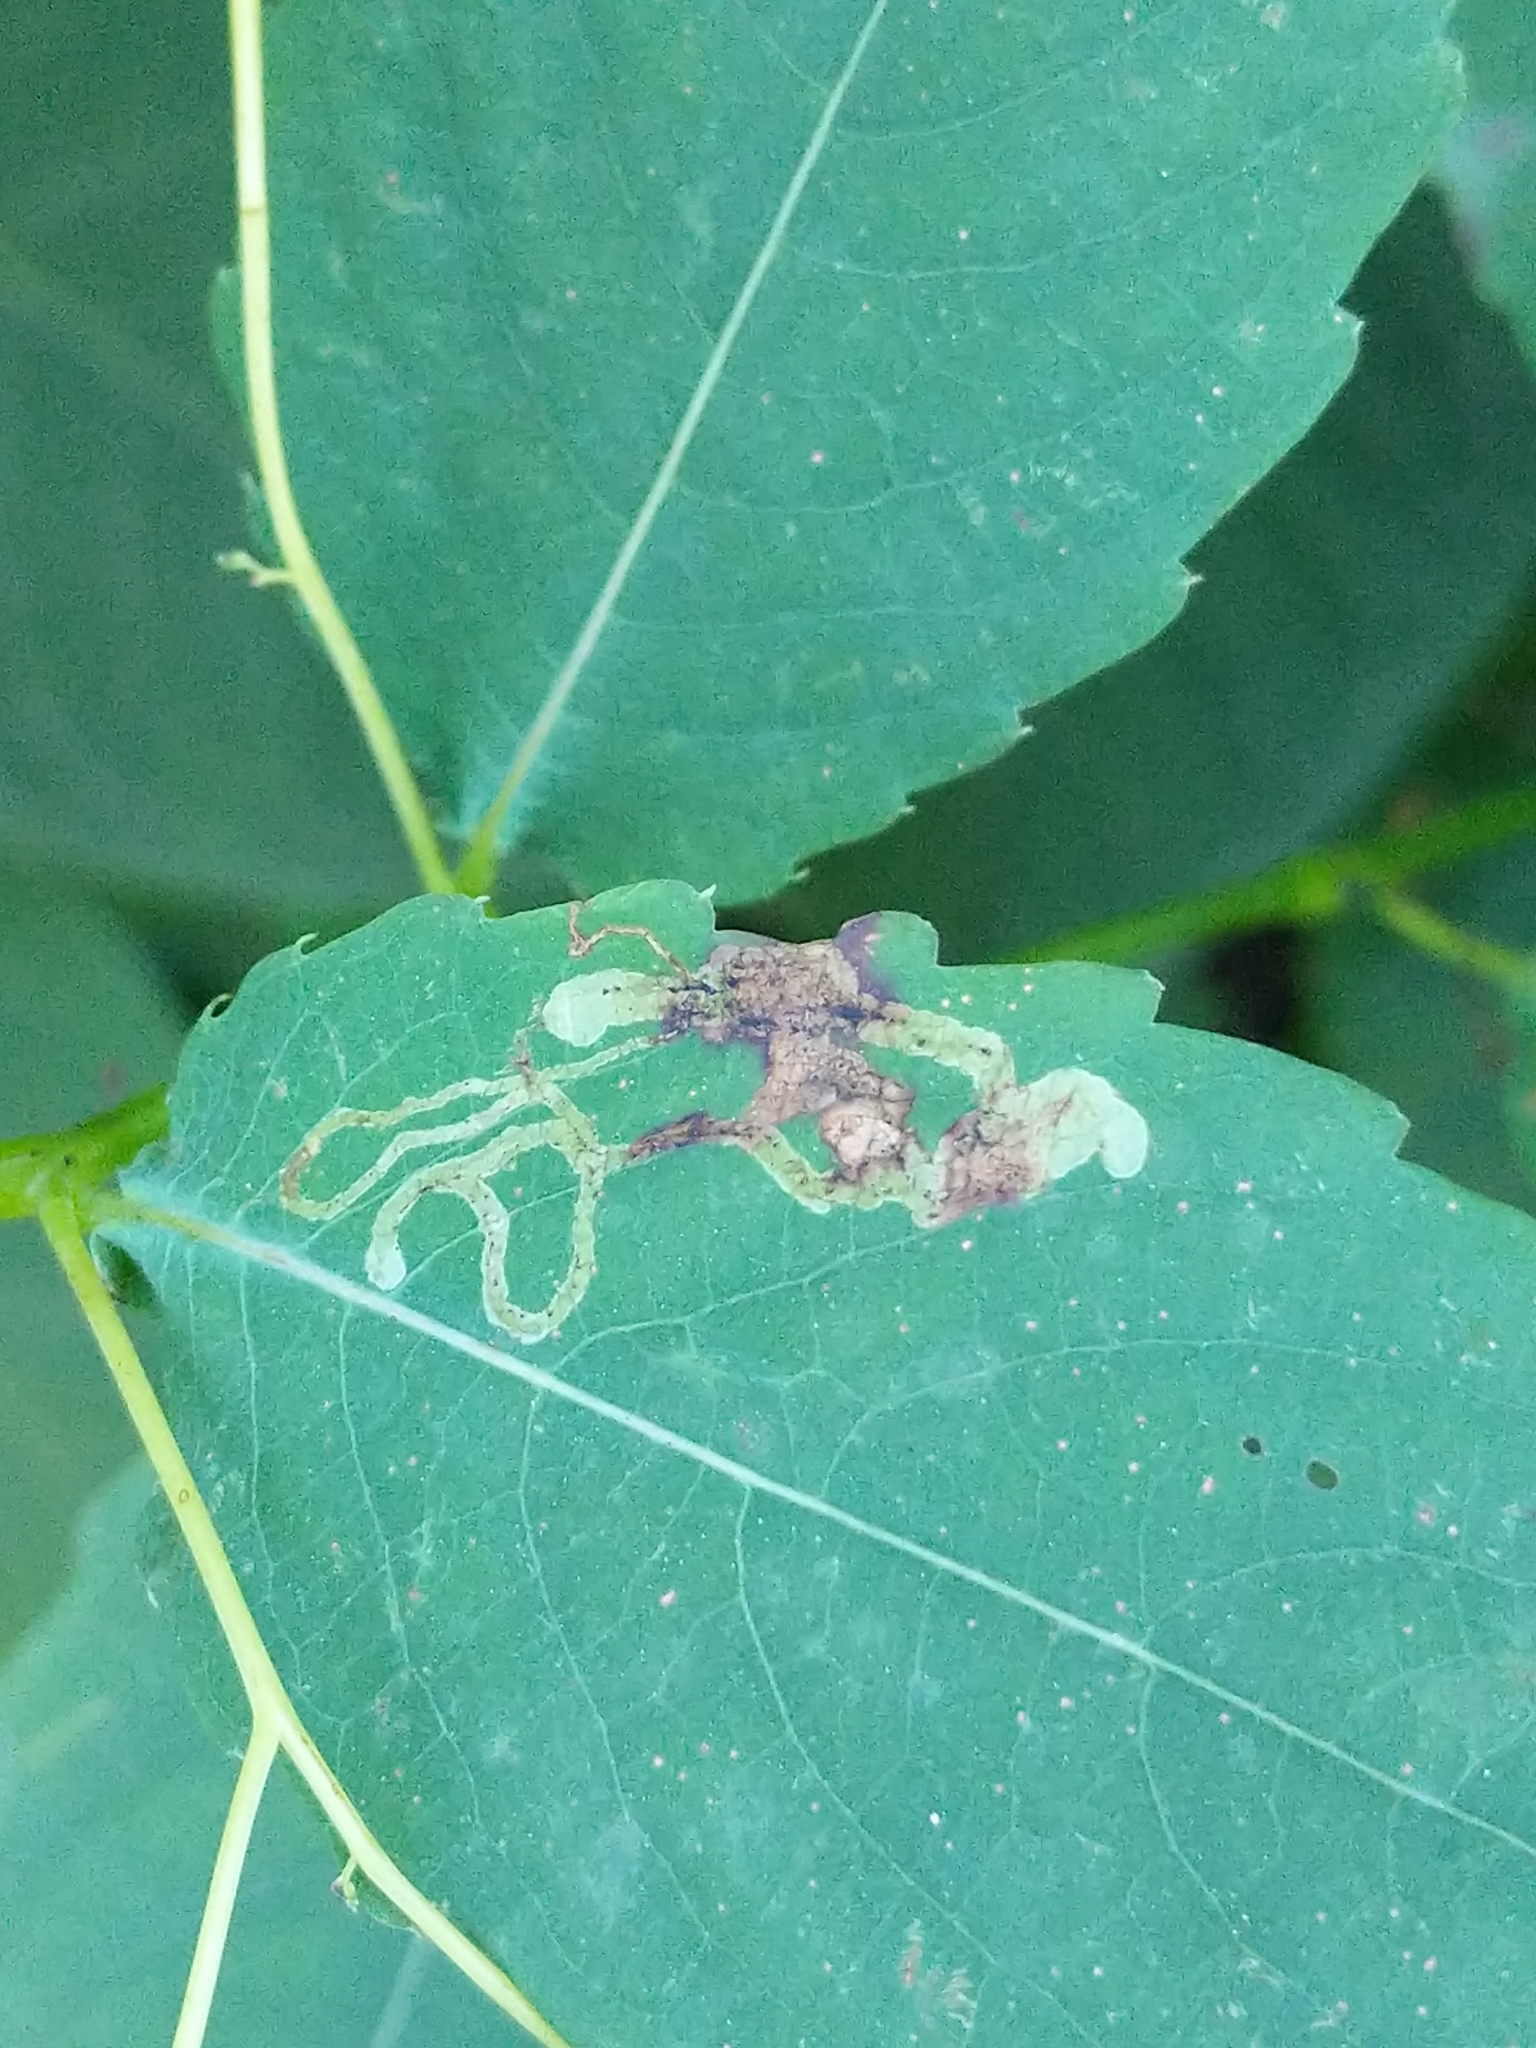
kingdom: Animalia
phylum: Arthropoda
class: Insecta
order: Diptera
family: Agromyzidae
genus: Phytoliriomyza
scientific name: Phytoliriomyza melampyga
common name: Jewelweed leaf-miner fly
